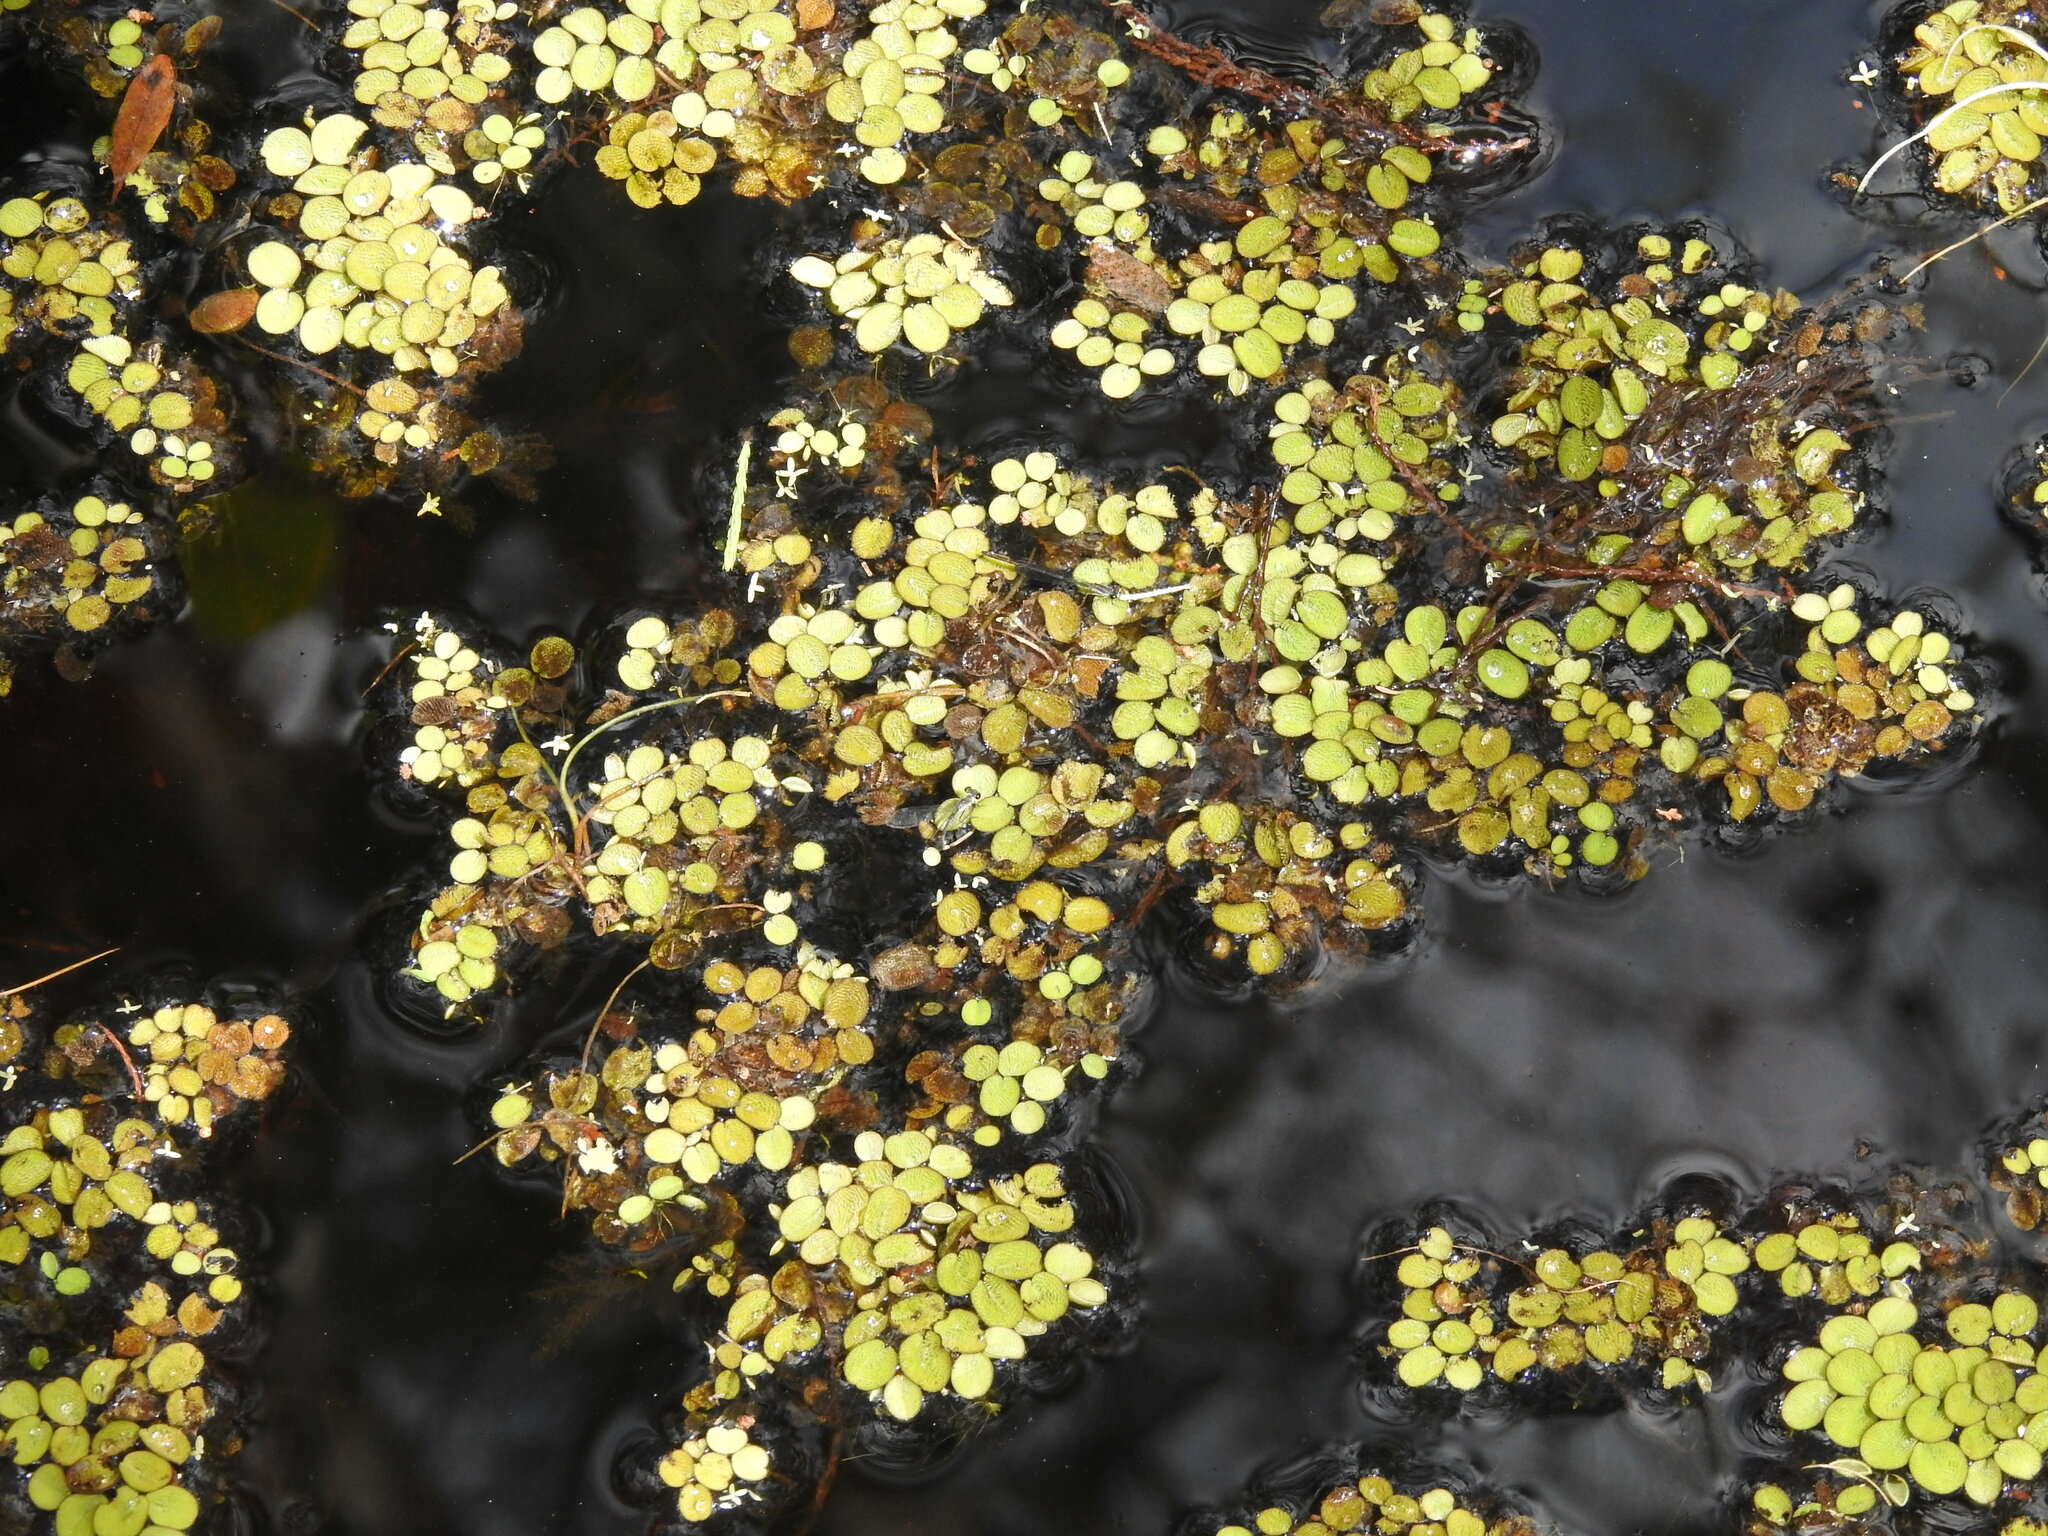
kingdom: Plantae
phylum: Tracheophyta
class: Polypodiopsida
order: Salviniales
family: Salviniaceae
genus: Salvinia
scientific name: Salvinia minima
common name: Water spangles
